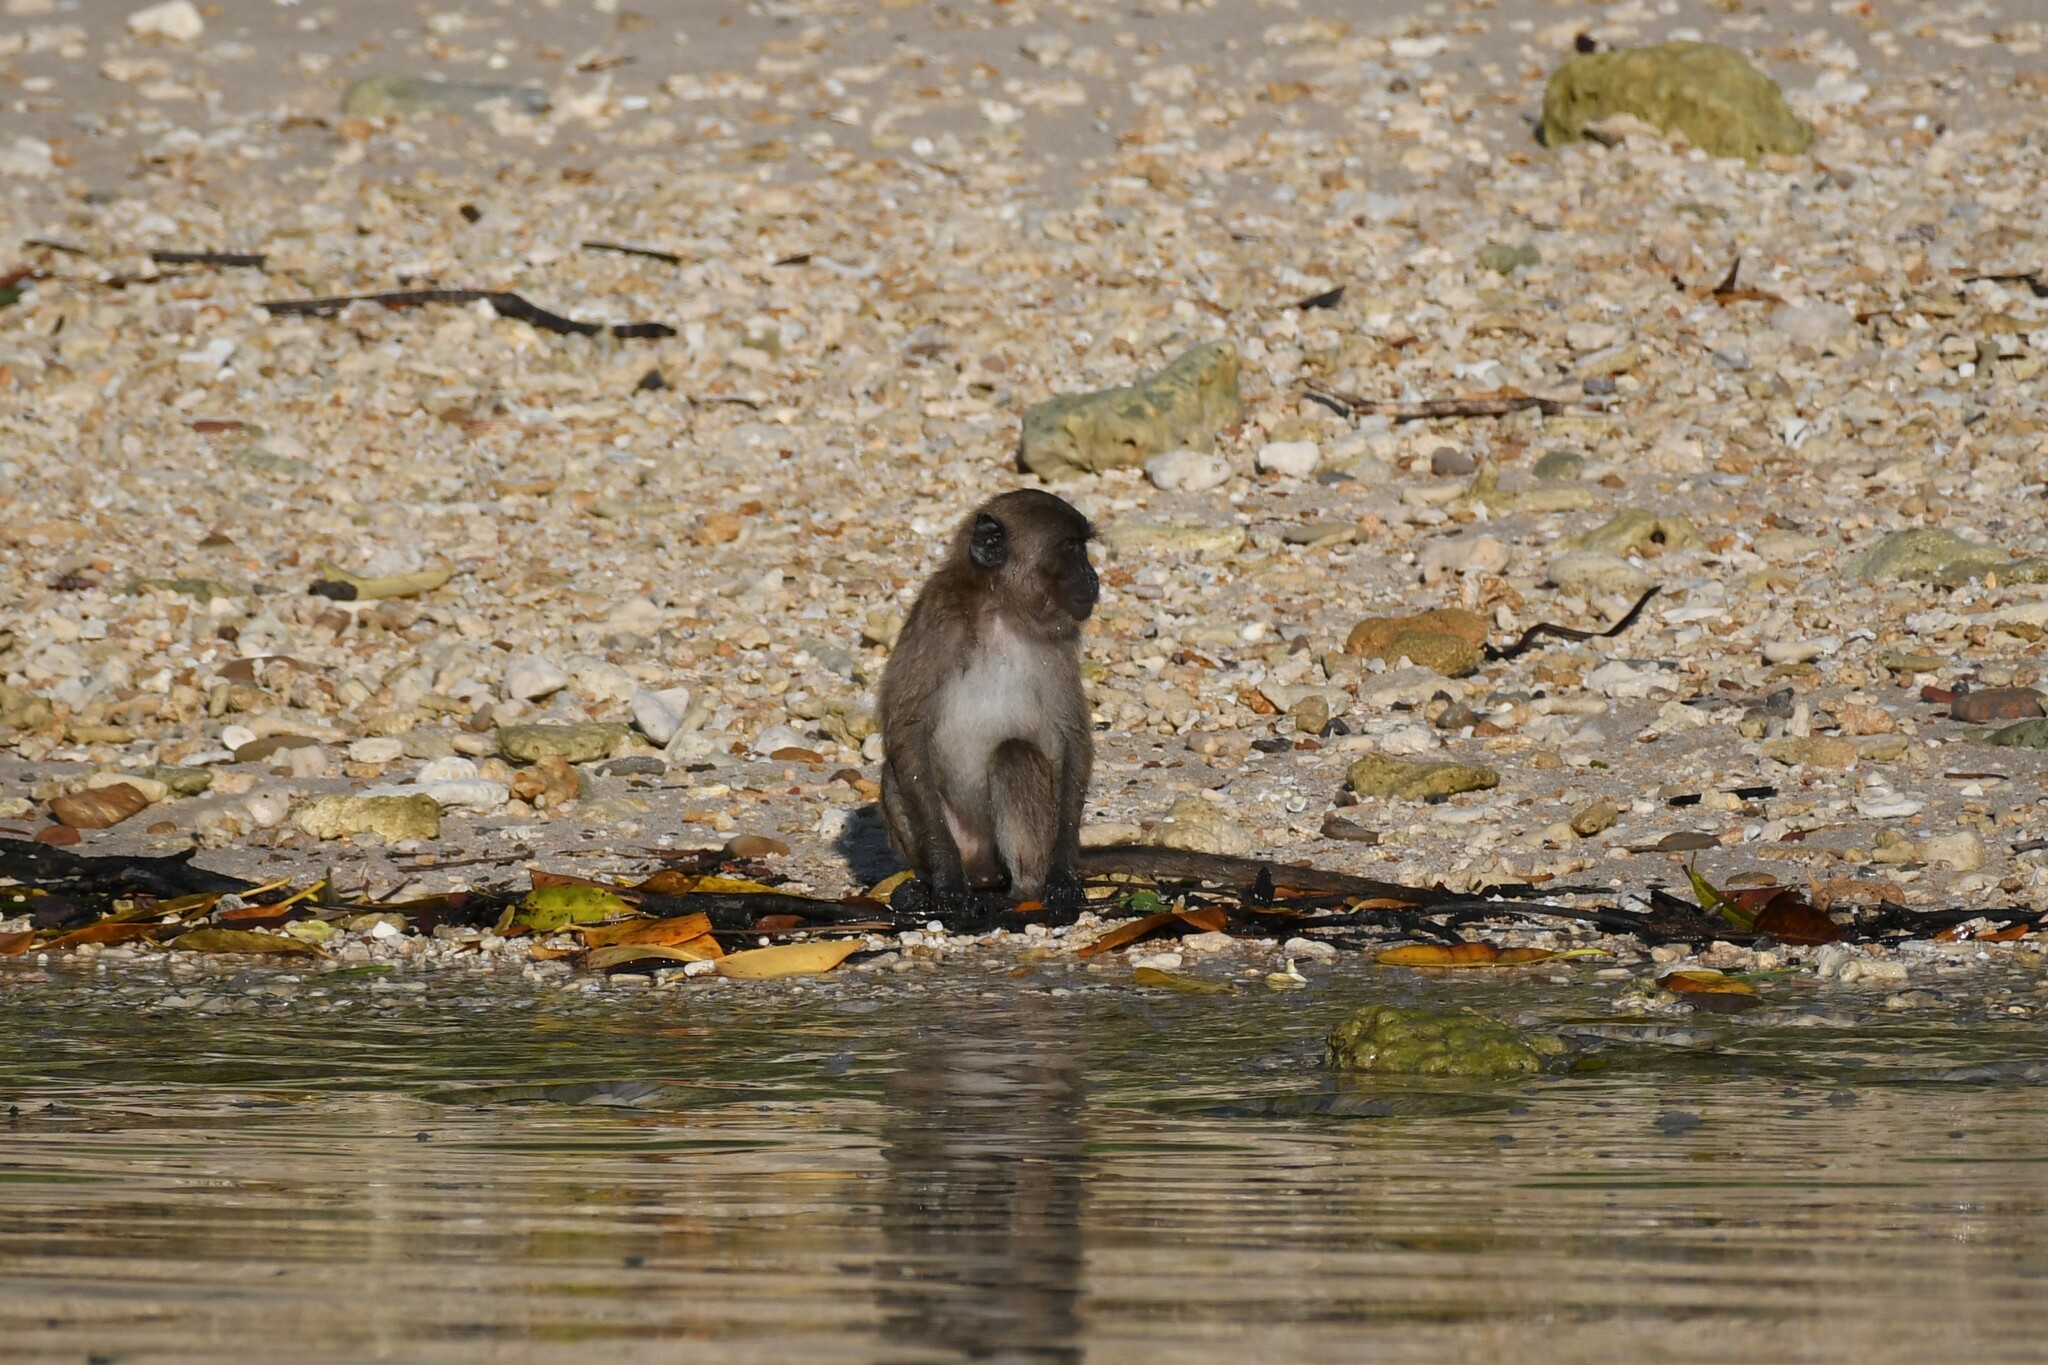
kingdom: Animalia
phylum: Chordata
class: Mammalia
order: Primates
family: Cercopithecidae
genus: Macaca
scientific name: Macaca fascicularis
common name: Crab-eating macaque
